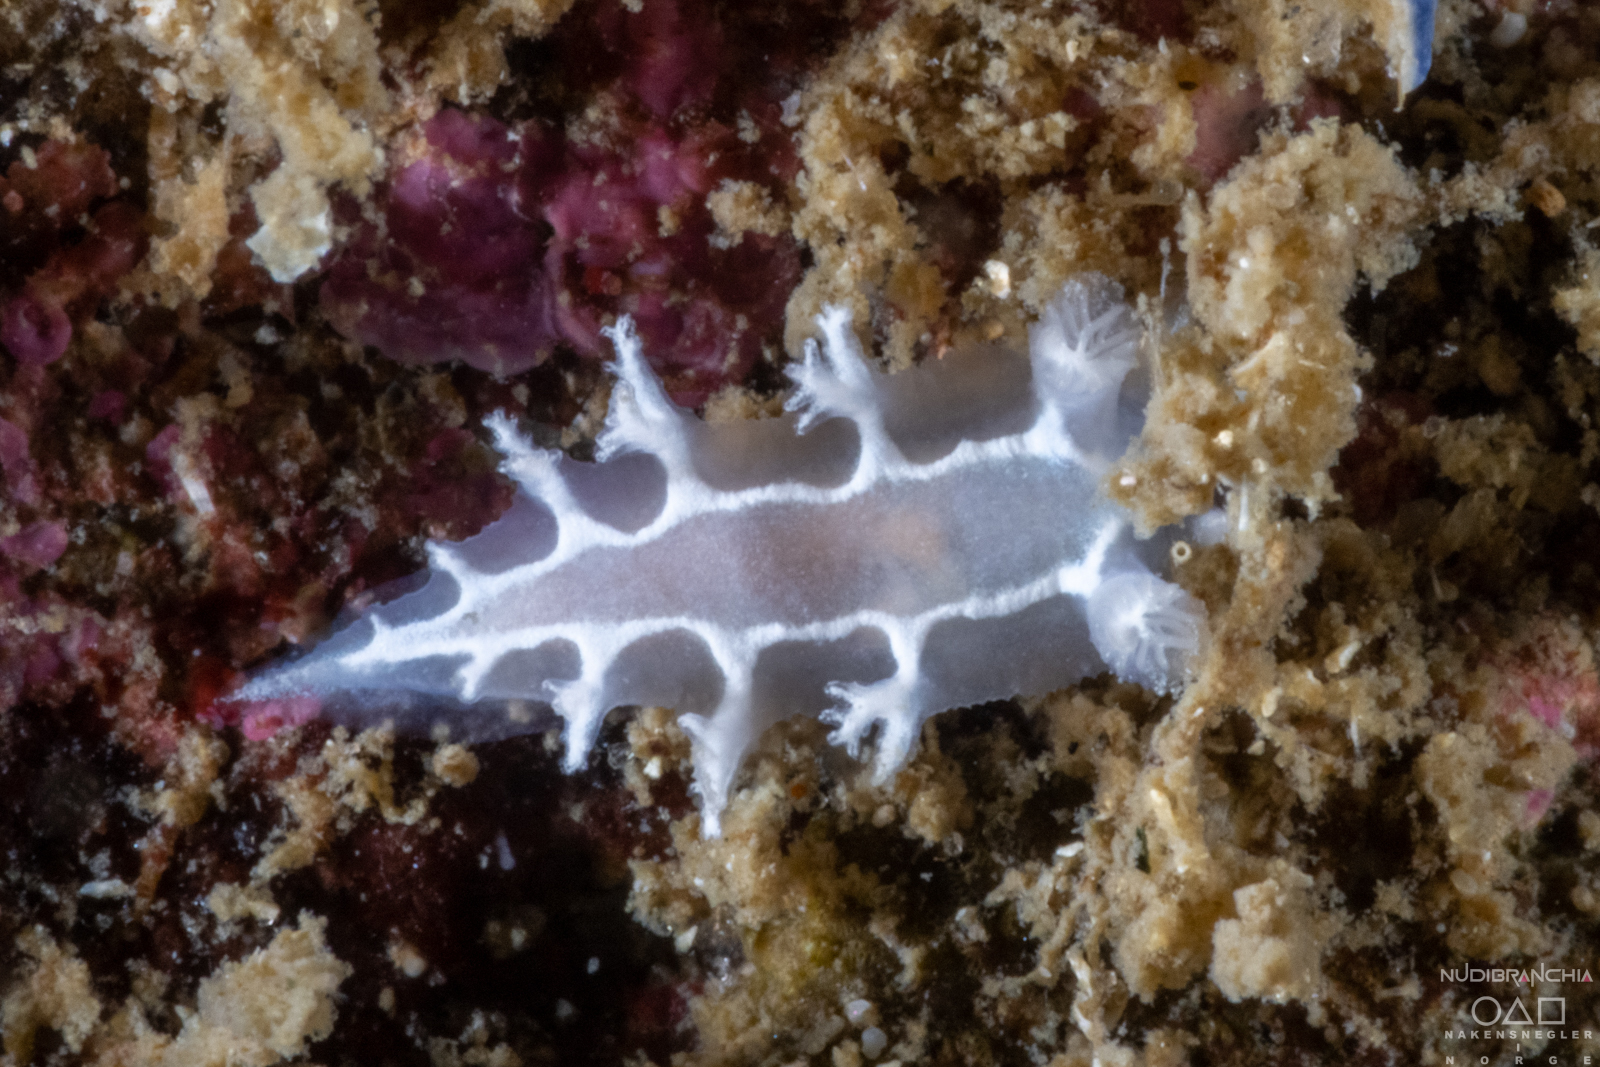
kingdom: Animalia
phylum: Mollusca
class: Gastropoda
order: Nudibranchia
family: Tritoniidae
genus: Duvaucelia
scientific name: Duvaucelia lineata
